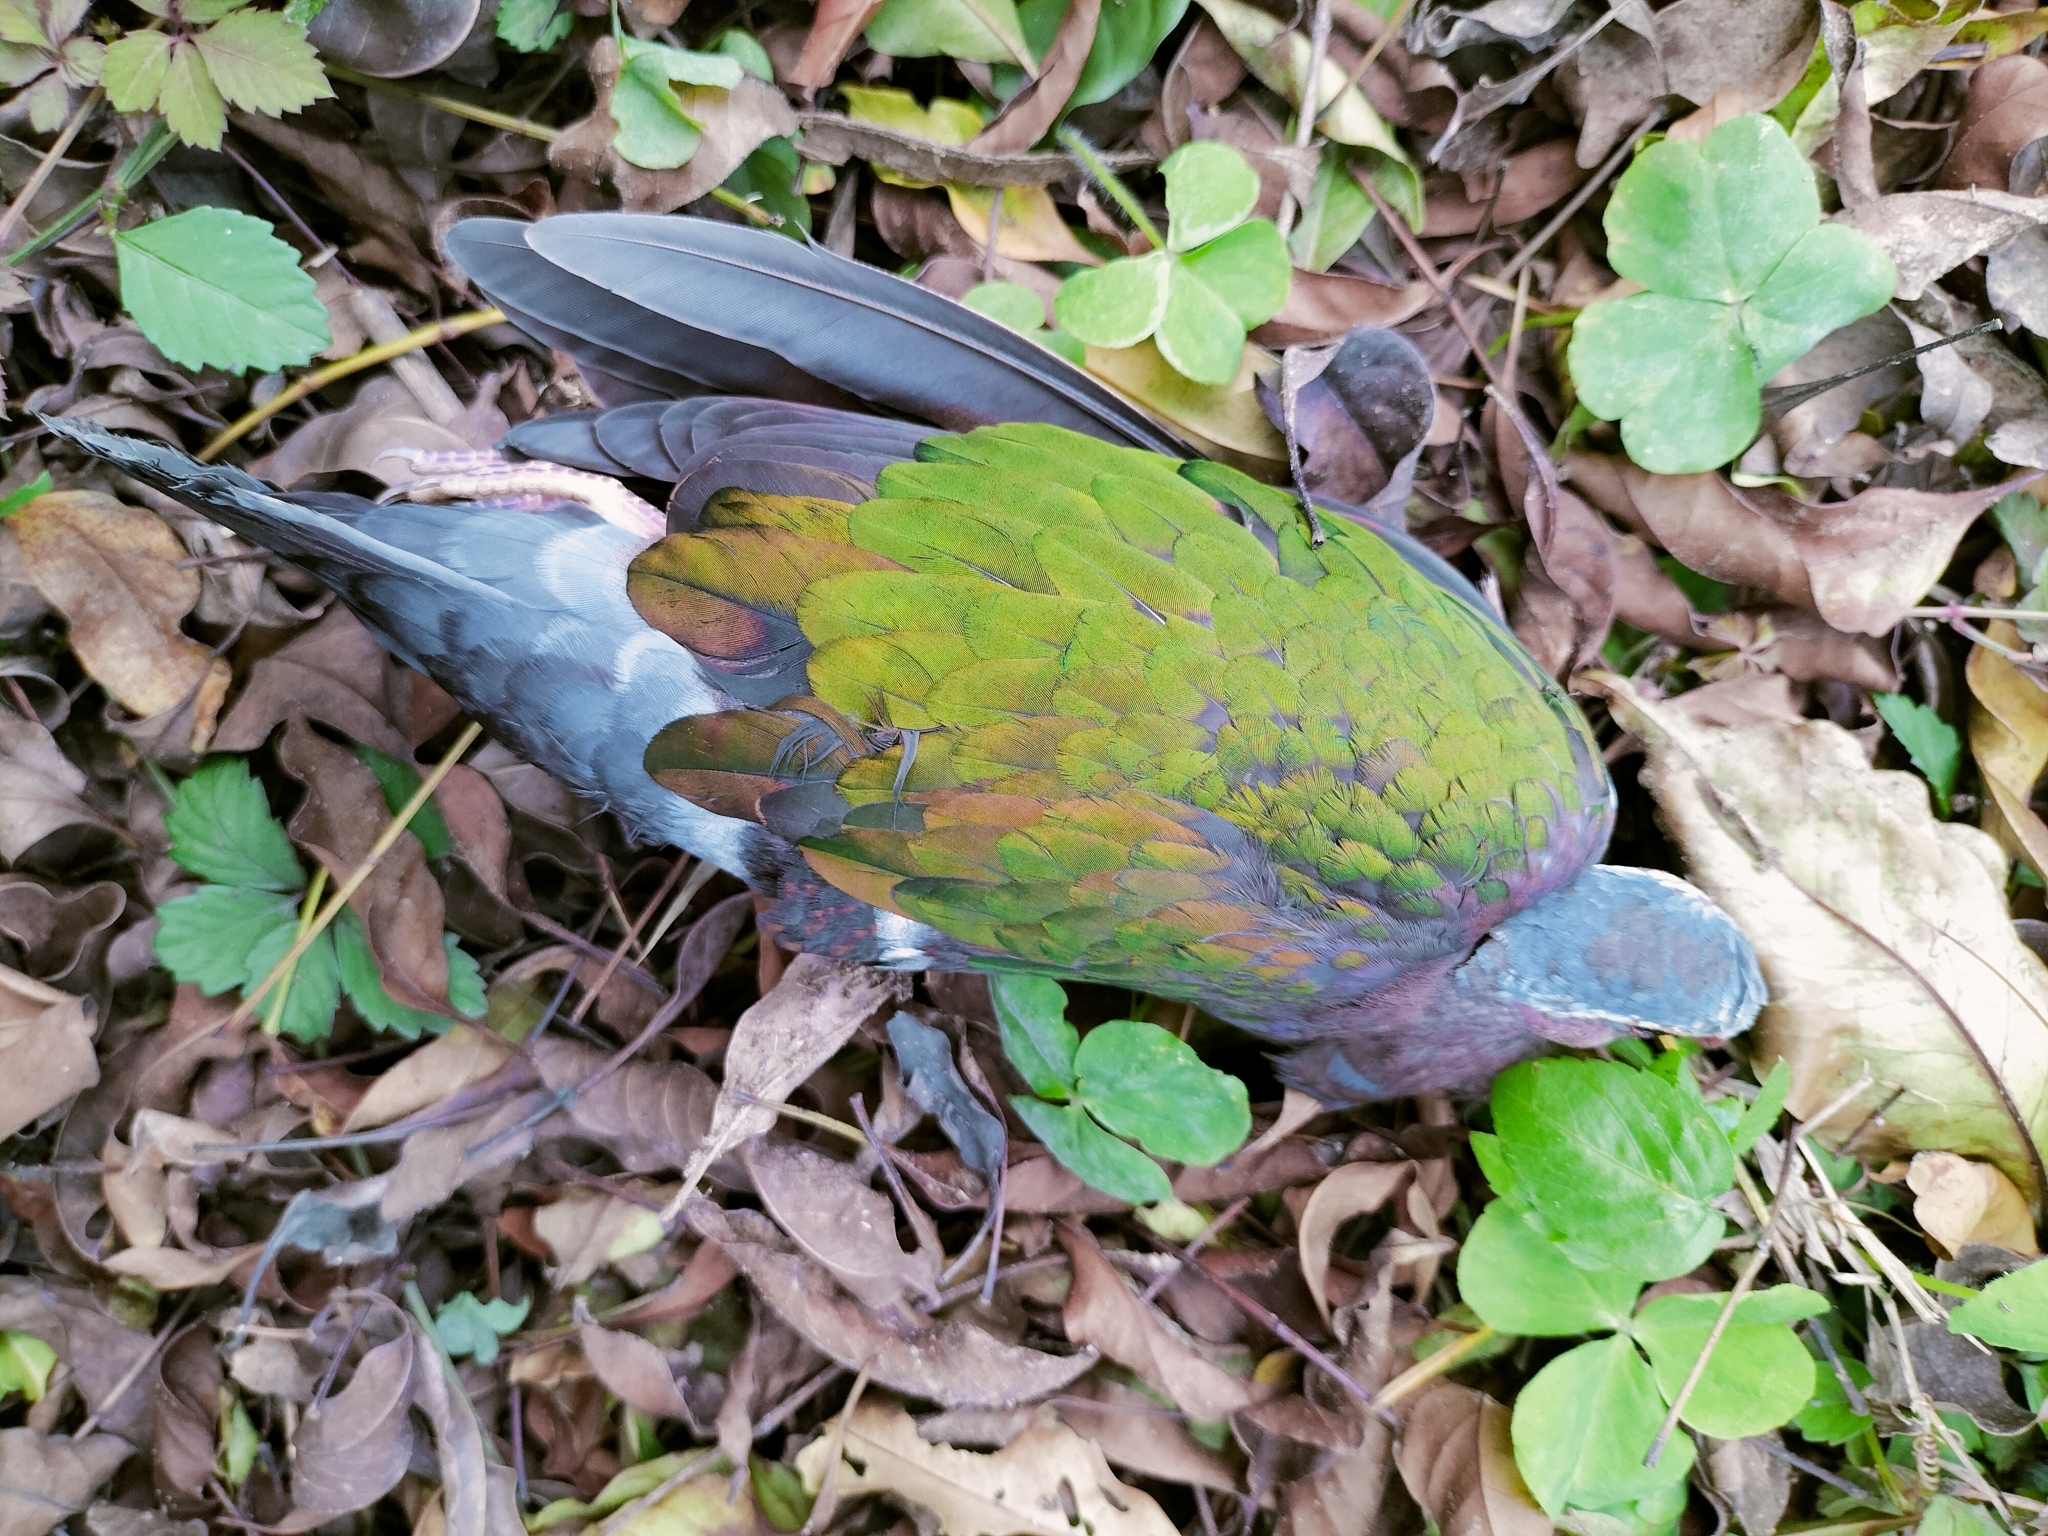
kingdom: Animalia
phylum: Chordata
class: Aves
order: Columbiformes
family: Columbidae
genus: Chalcophaps
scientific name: Chalcophaps indica
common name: Common emerald dove
